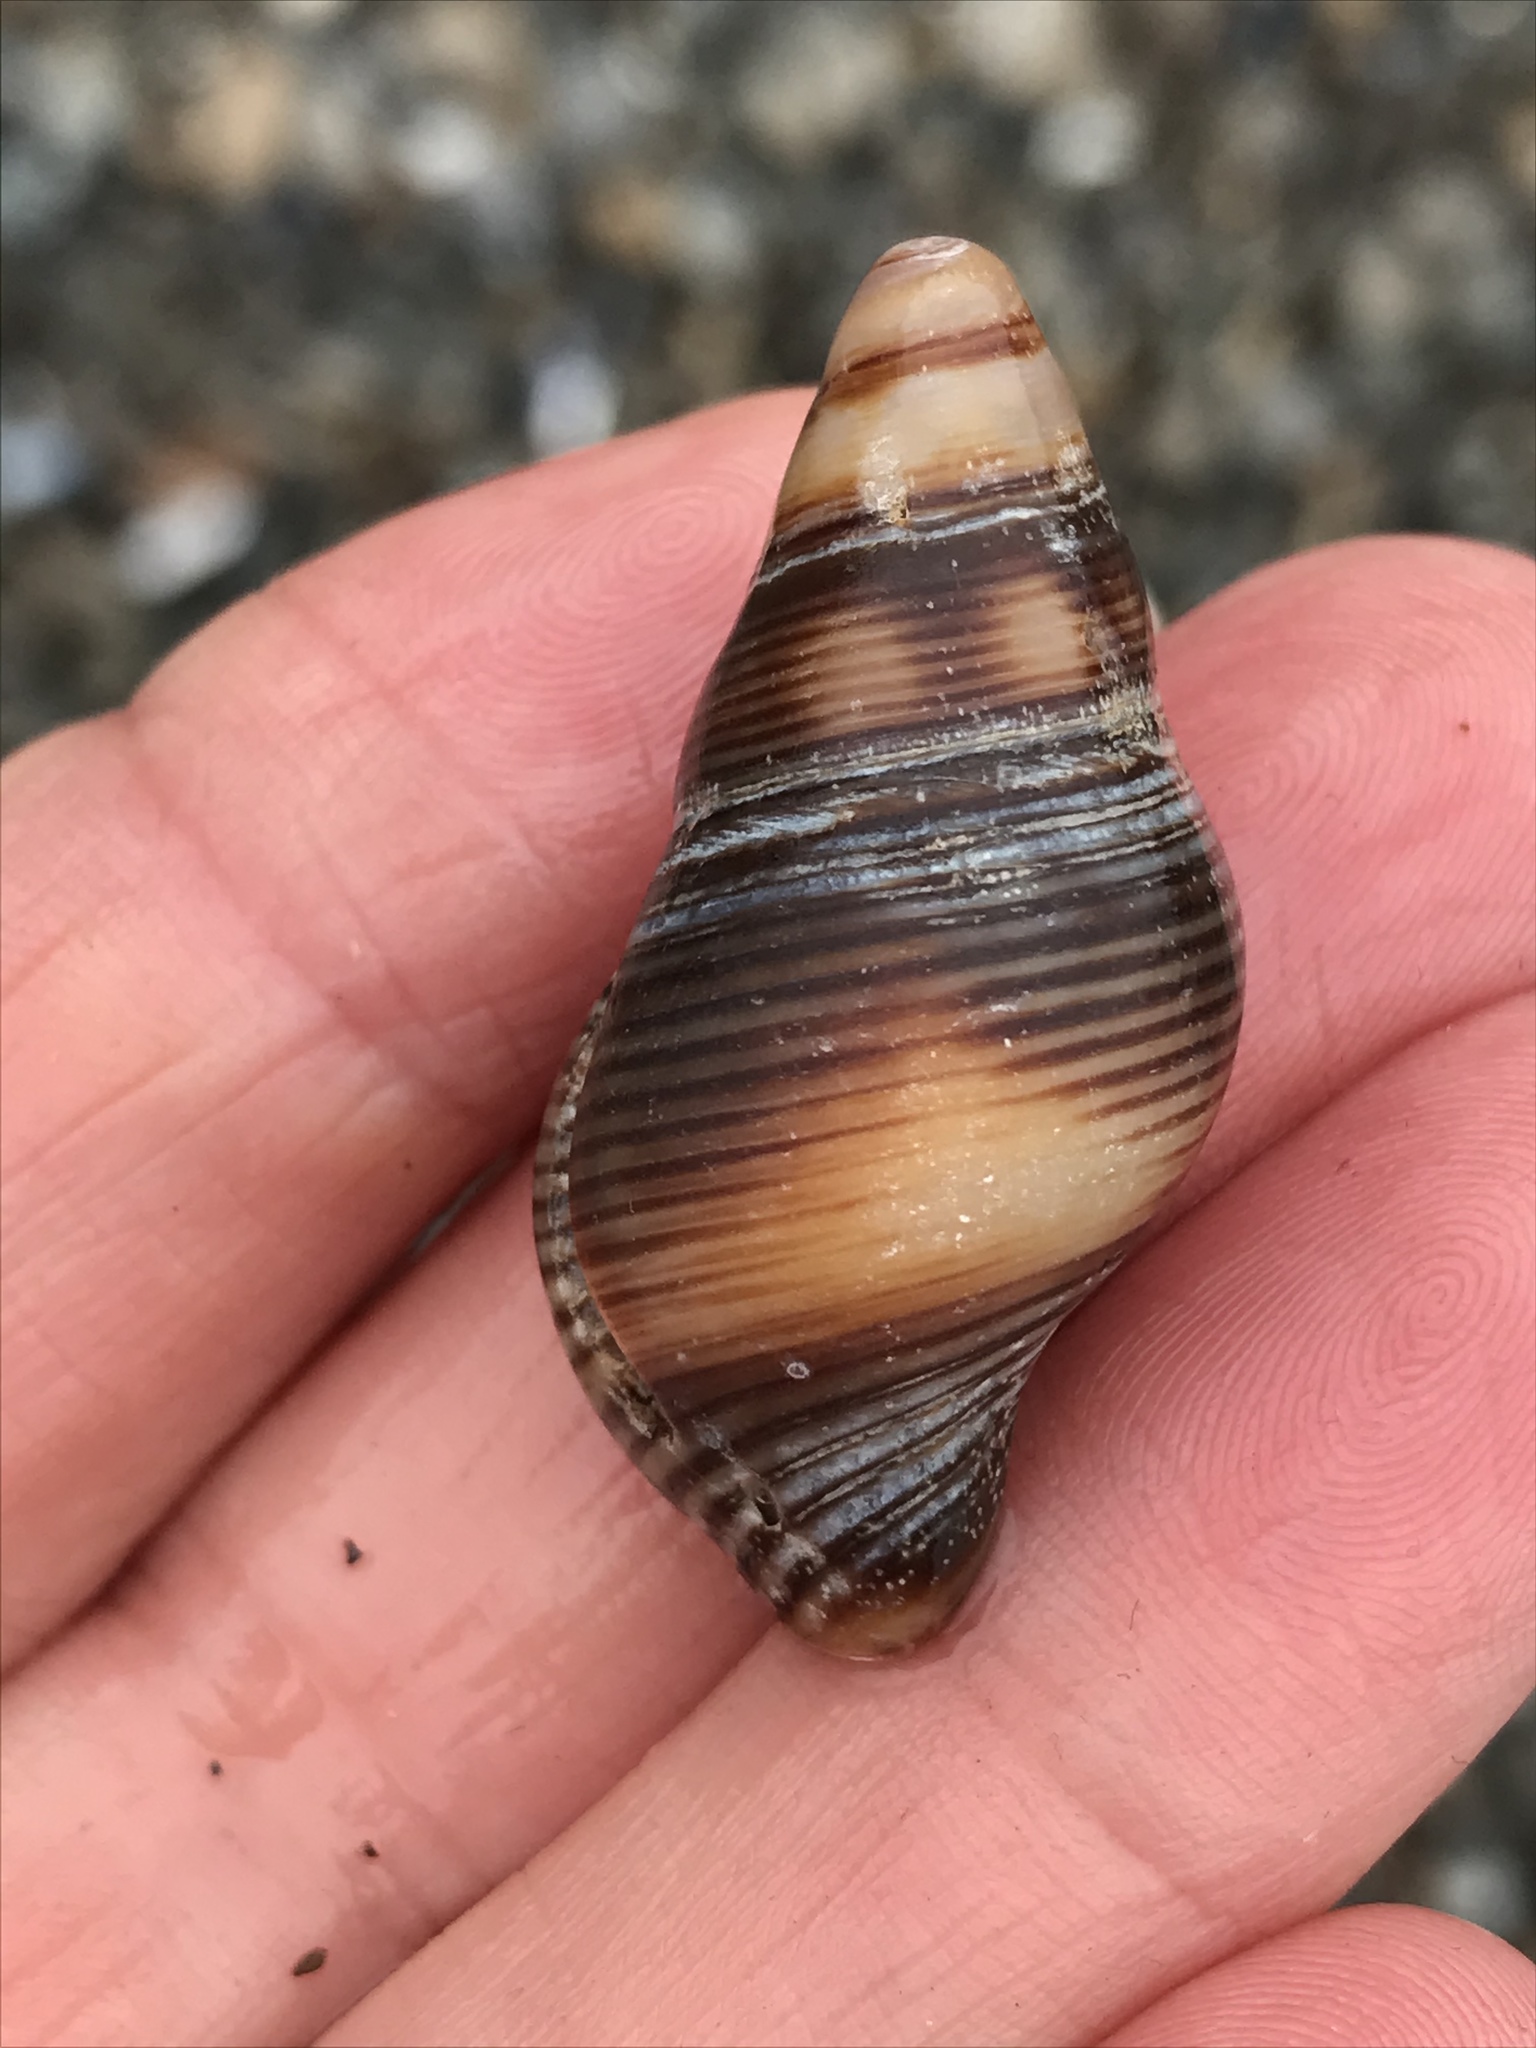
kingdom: Animalia
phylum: Mollusca
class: Gastropoda
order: Neogastropoda
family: Tudiclidae
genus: Lirabuccinum
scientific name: Lirabuccinum dirum
